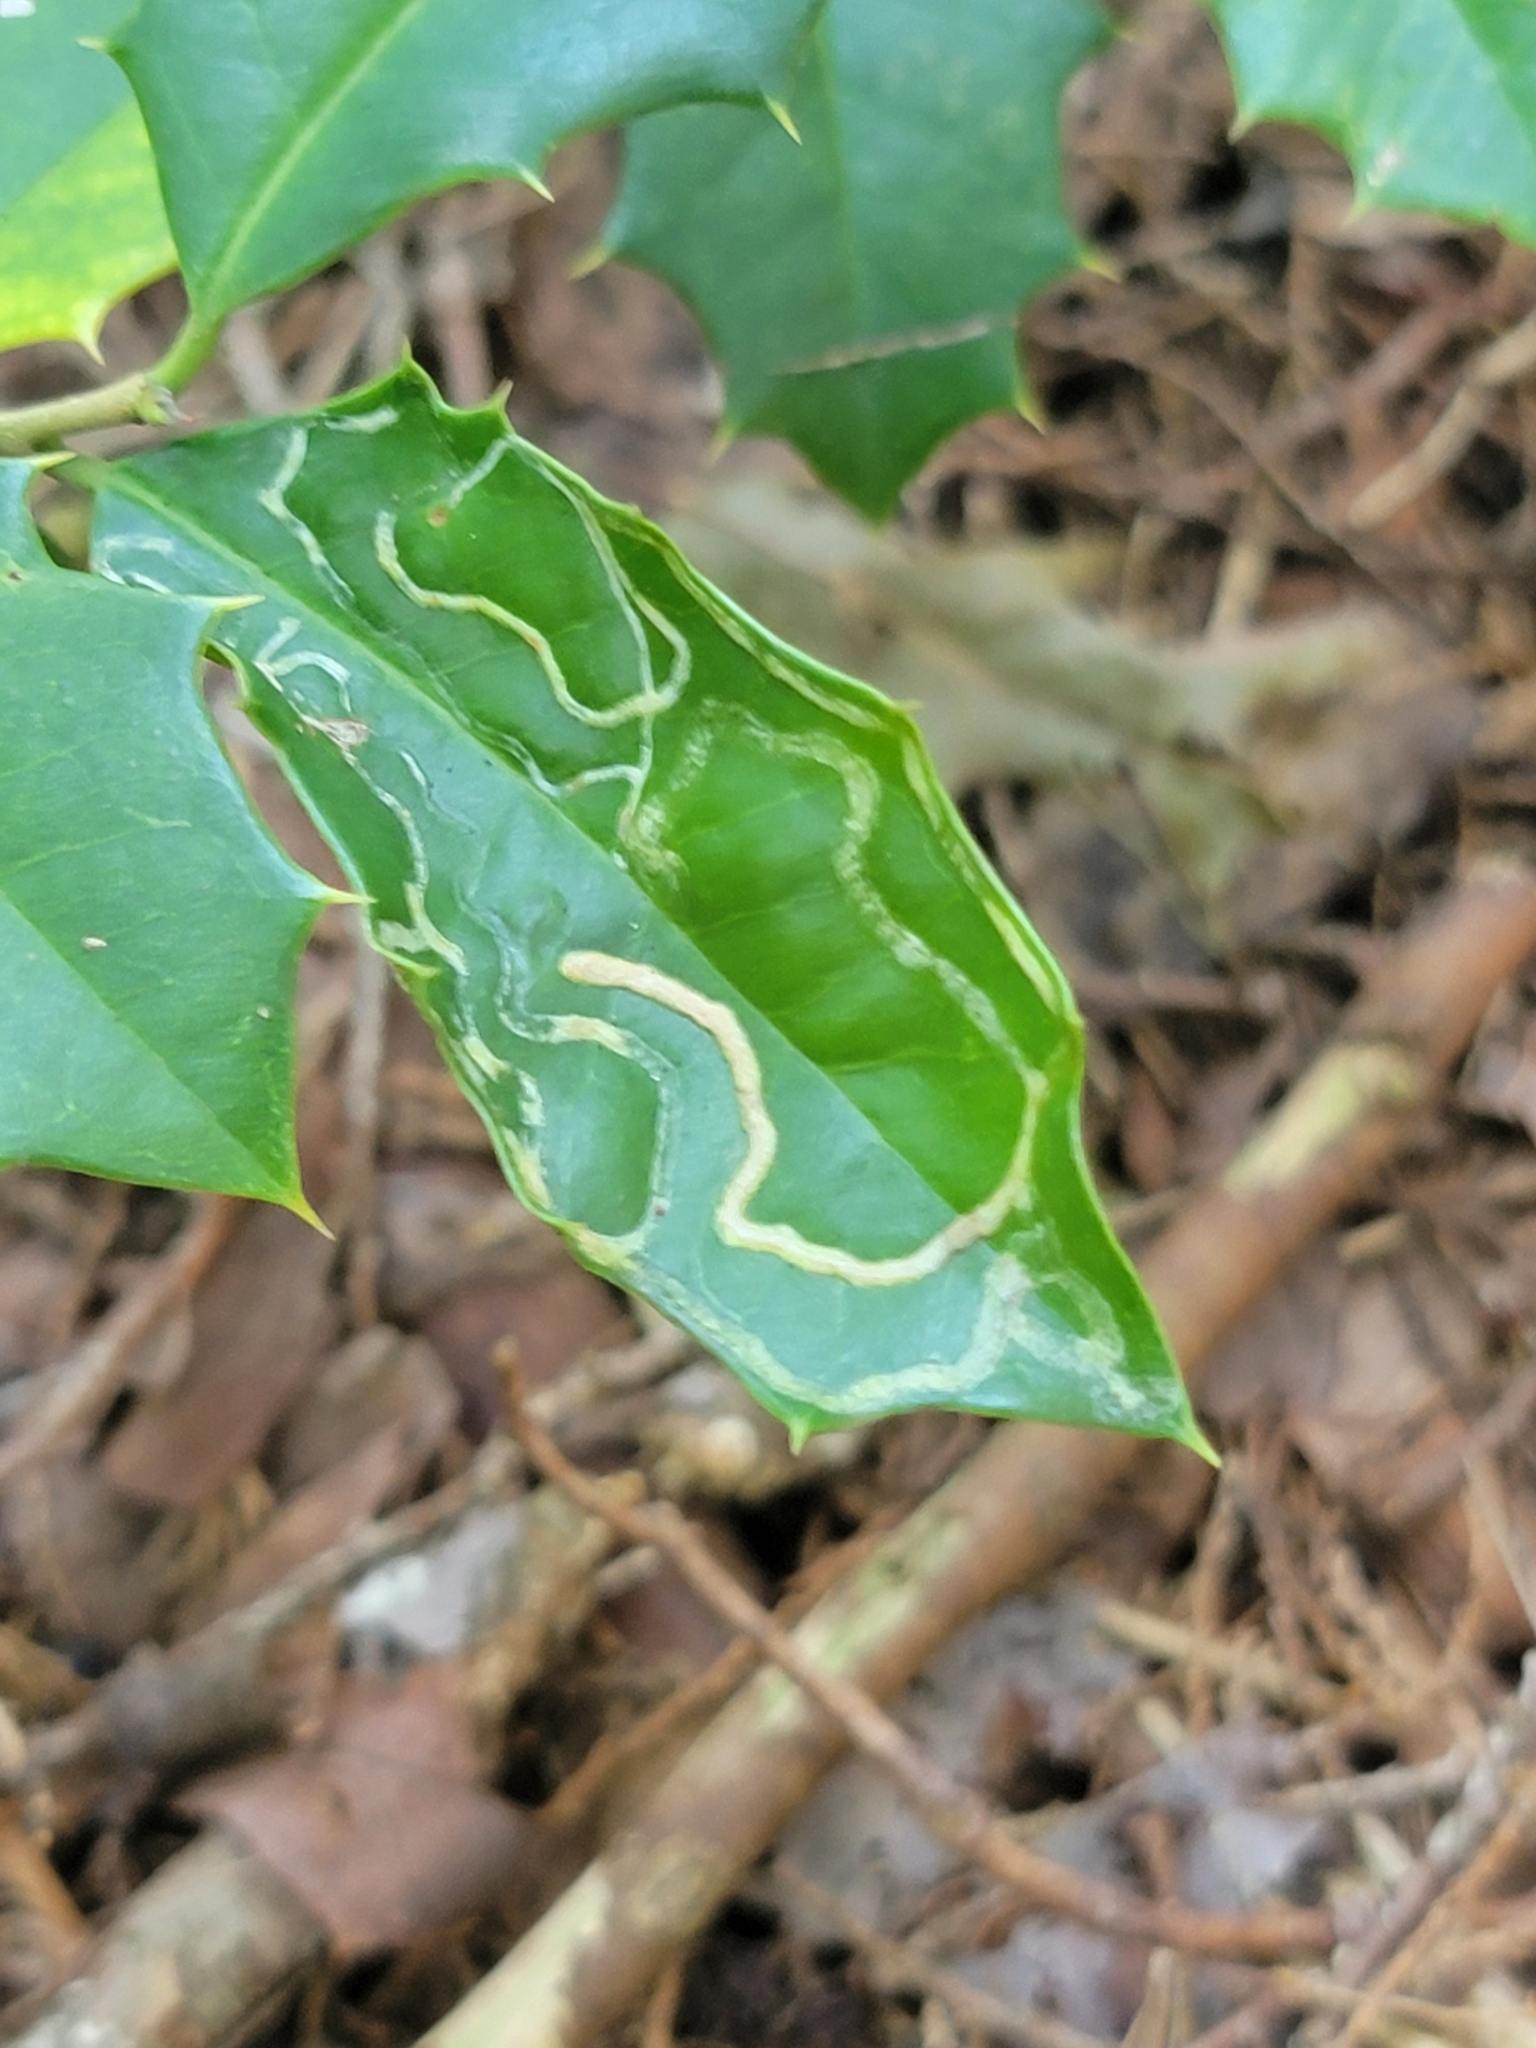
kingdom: Animalia
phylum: Arthropoda
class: Insecta
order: Diptera
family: Agromyzidae
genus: Phytomyza
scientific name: Phytomyza opacae
